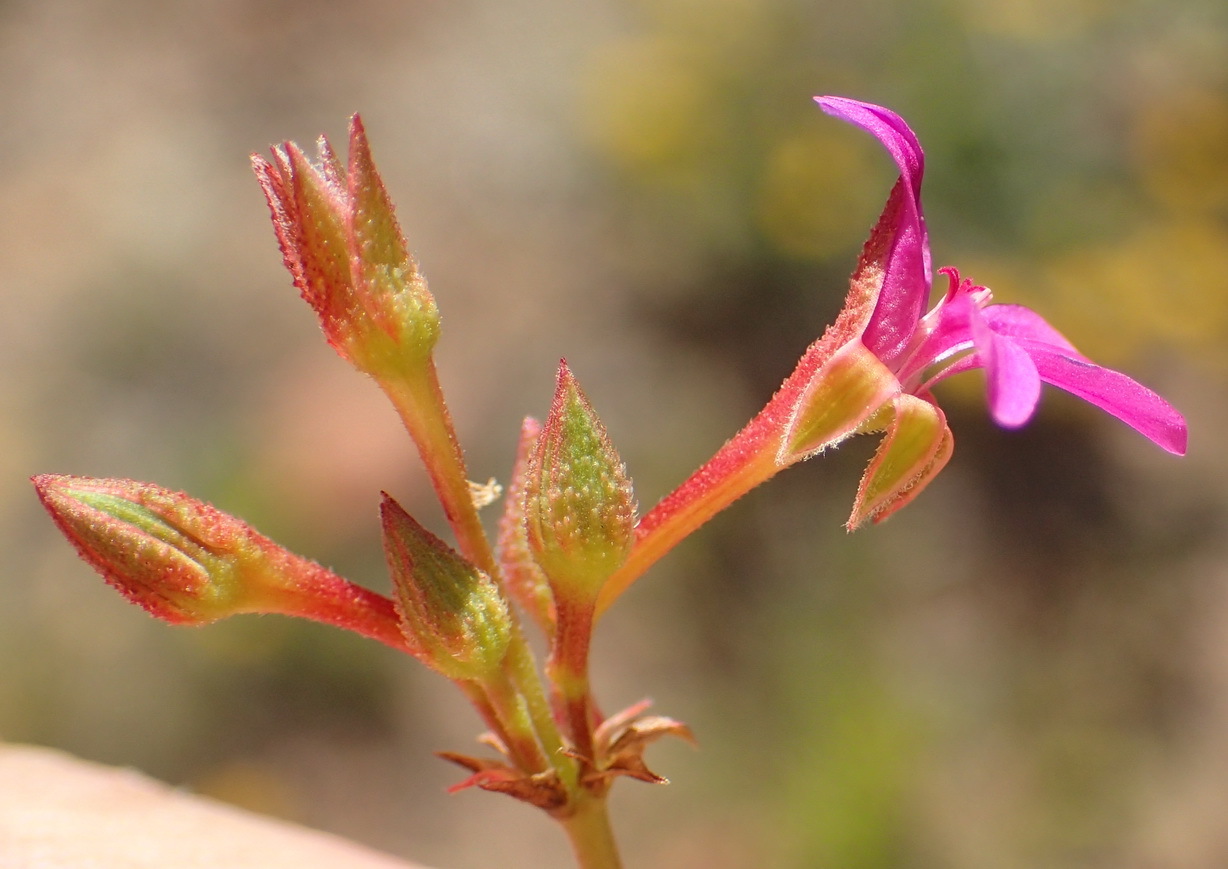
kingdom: Plantae
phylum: Tracheophyta
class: Magnoliopsida
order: Geraniales
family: Geraniaceae
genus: Pelargonium
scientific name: Pelargonium grossularioides
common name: Gooseberry geranium
